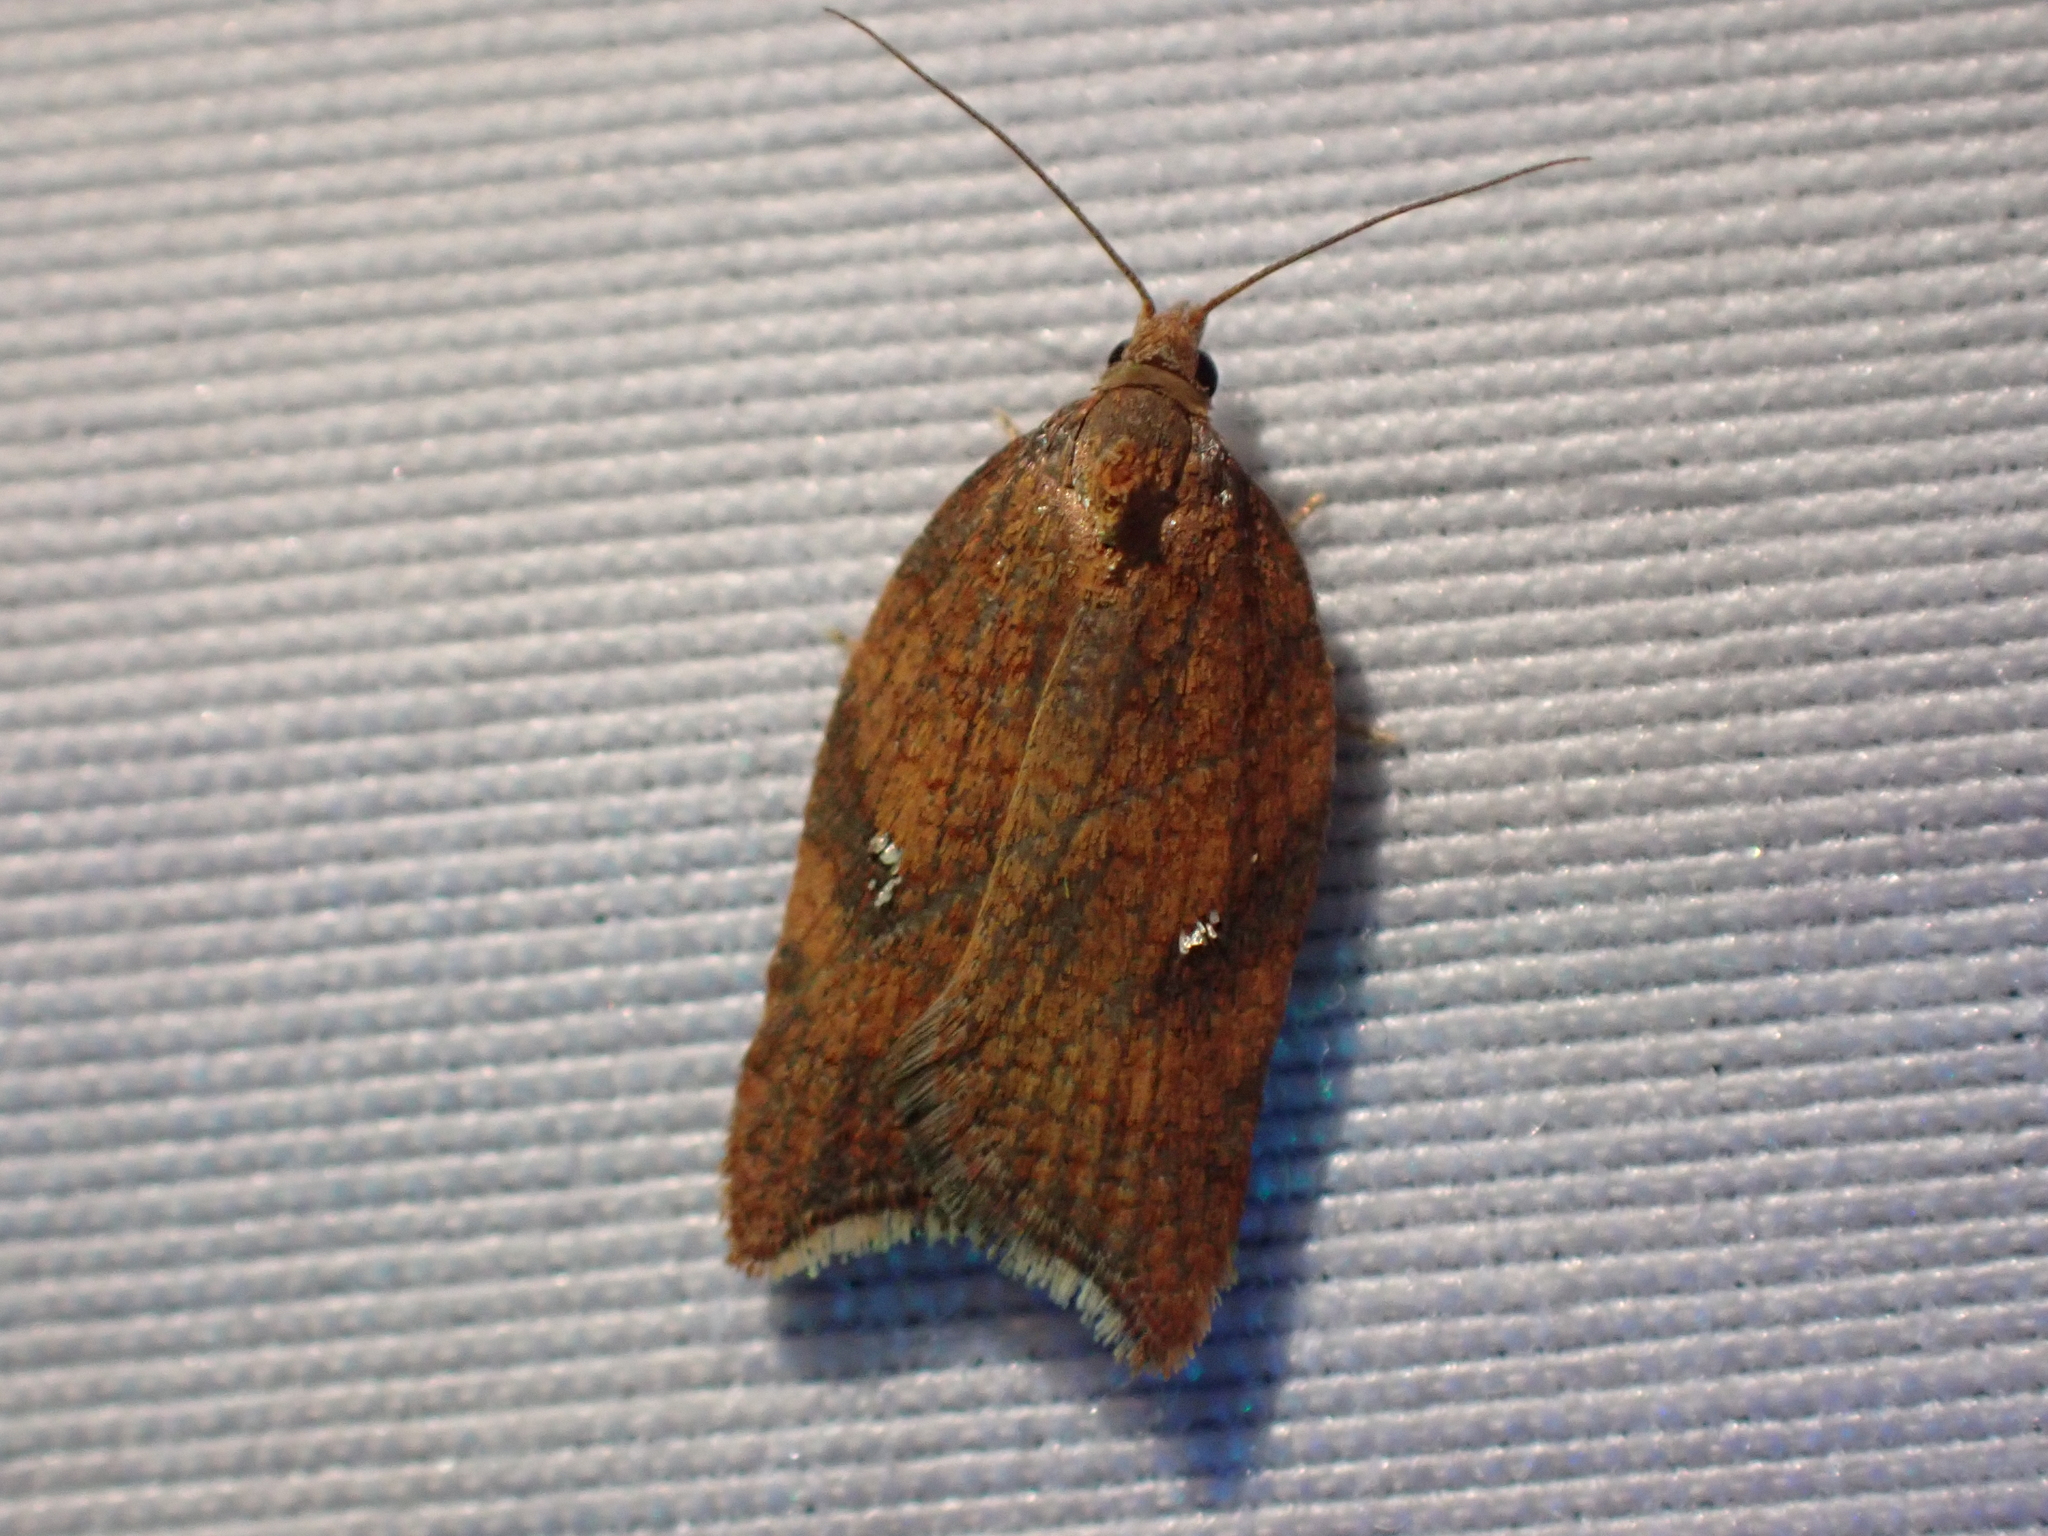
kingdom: Animalia
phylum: Arthropoda
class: Insecta
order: Lepidoptera
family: Tortricidae
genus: Acleris
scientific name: Acleris rhombana
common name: Tortricid moth
